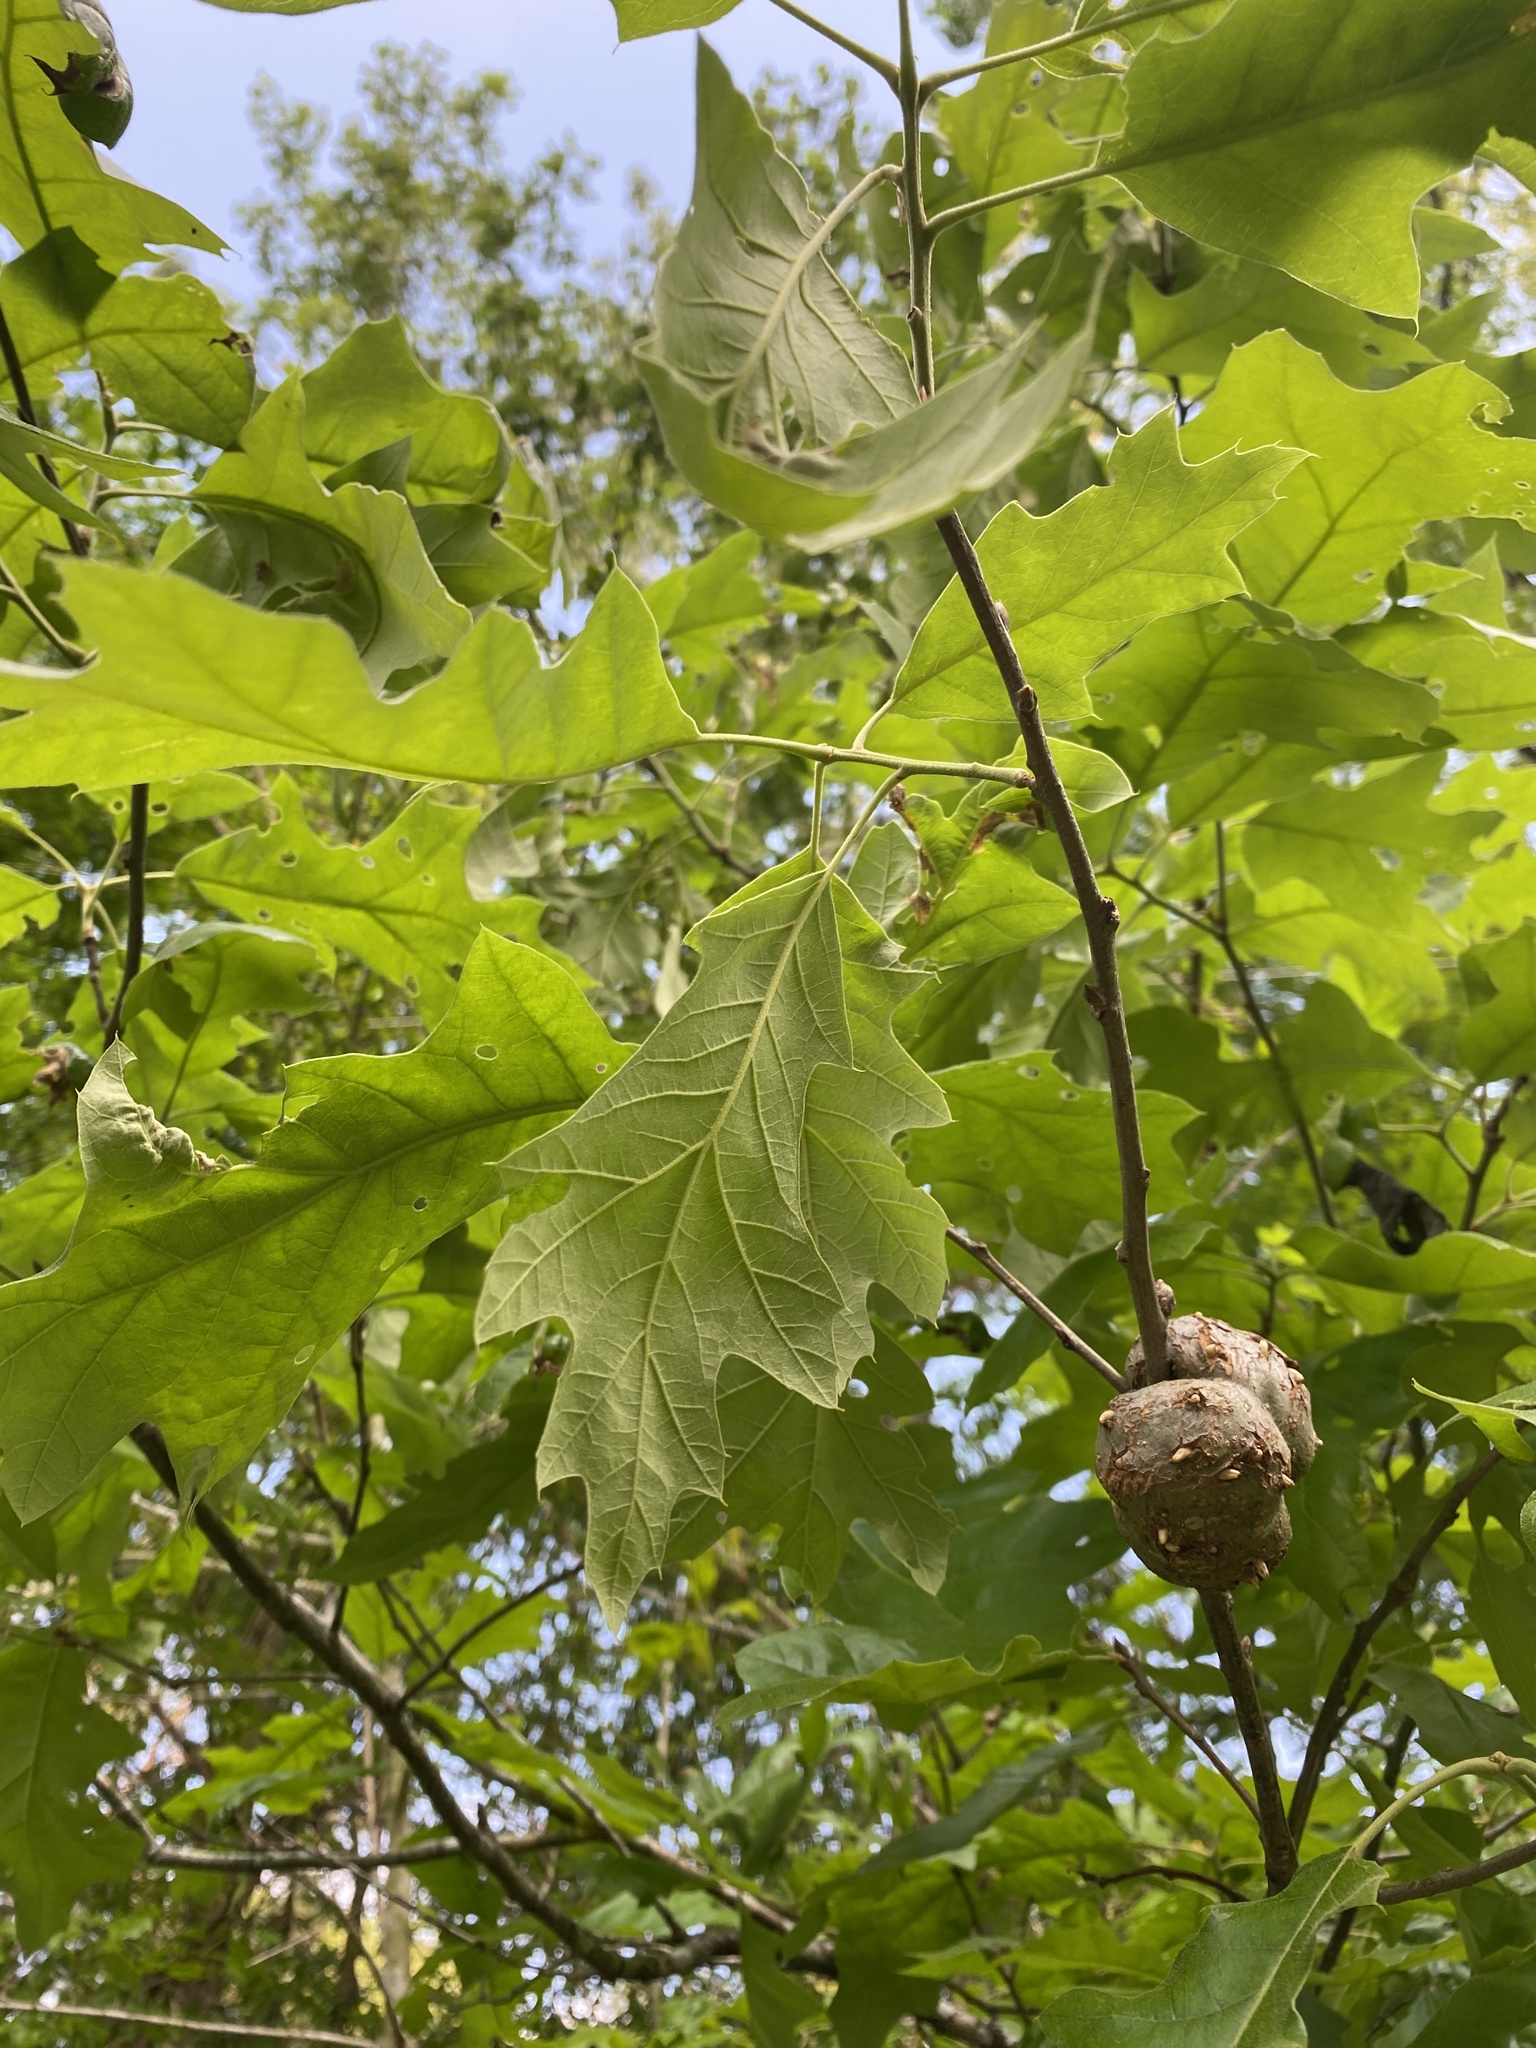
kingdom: Animalia
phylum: Arthropoda
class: Insecta
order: Hymenoptera
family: Cynipidae
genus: Callirhytis
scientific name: Callirhytis
